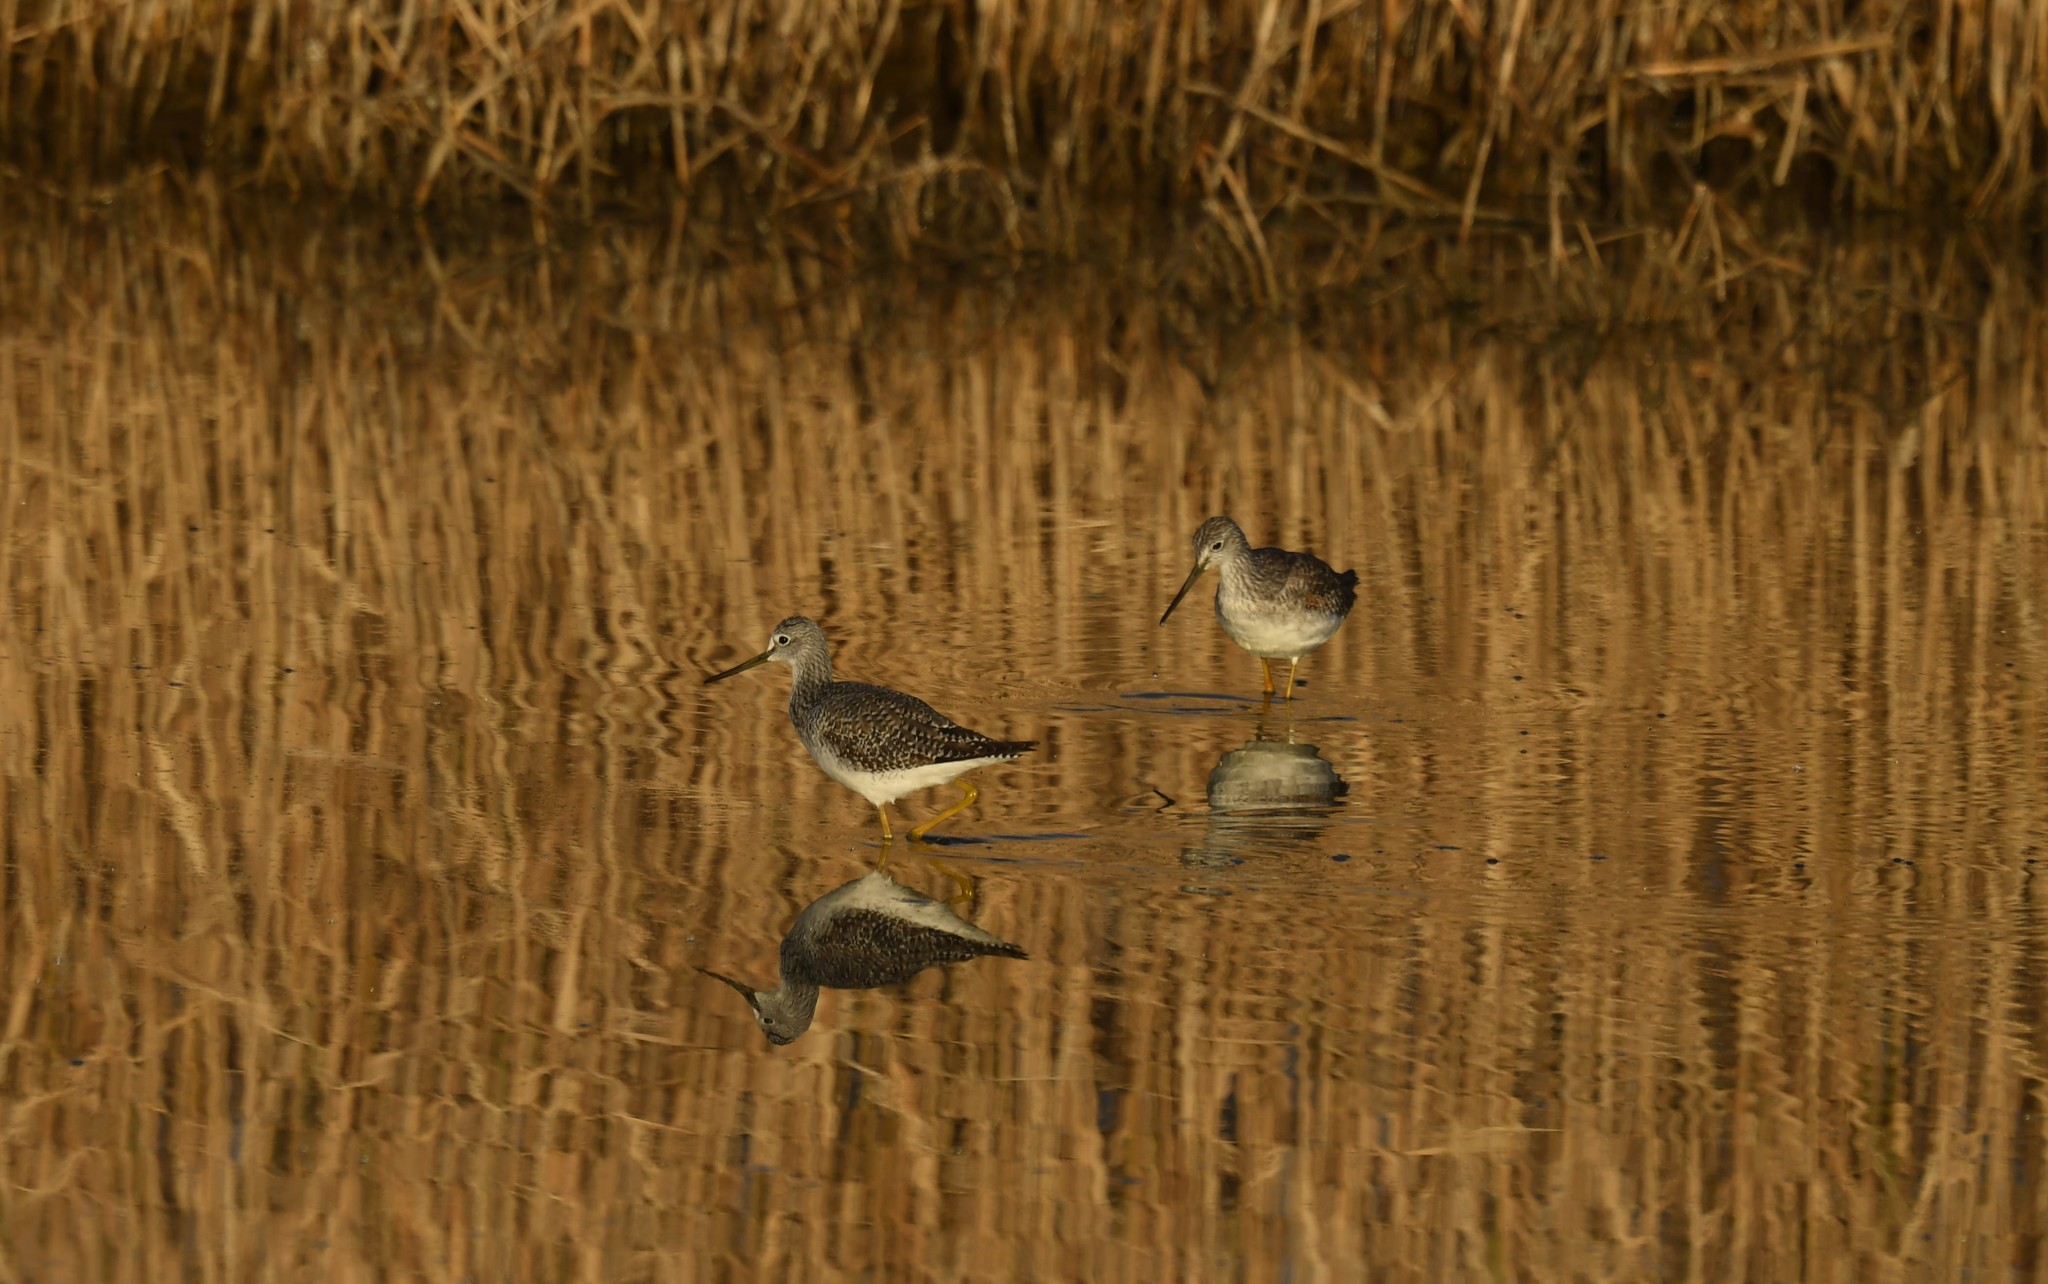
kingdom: Animalia
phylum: Chordata
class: Aves
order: Charadriiformes
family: Scolopacidae
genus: Tringa
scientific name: Tringa melanoleuca
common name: Greater yellowlegs
